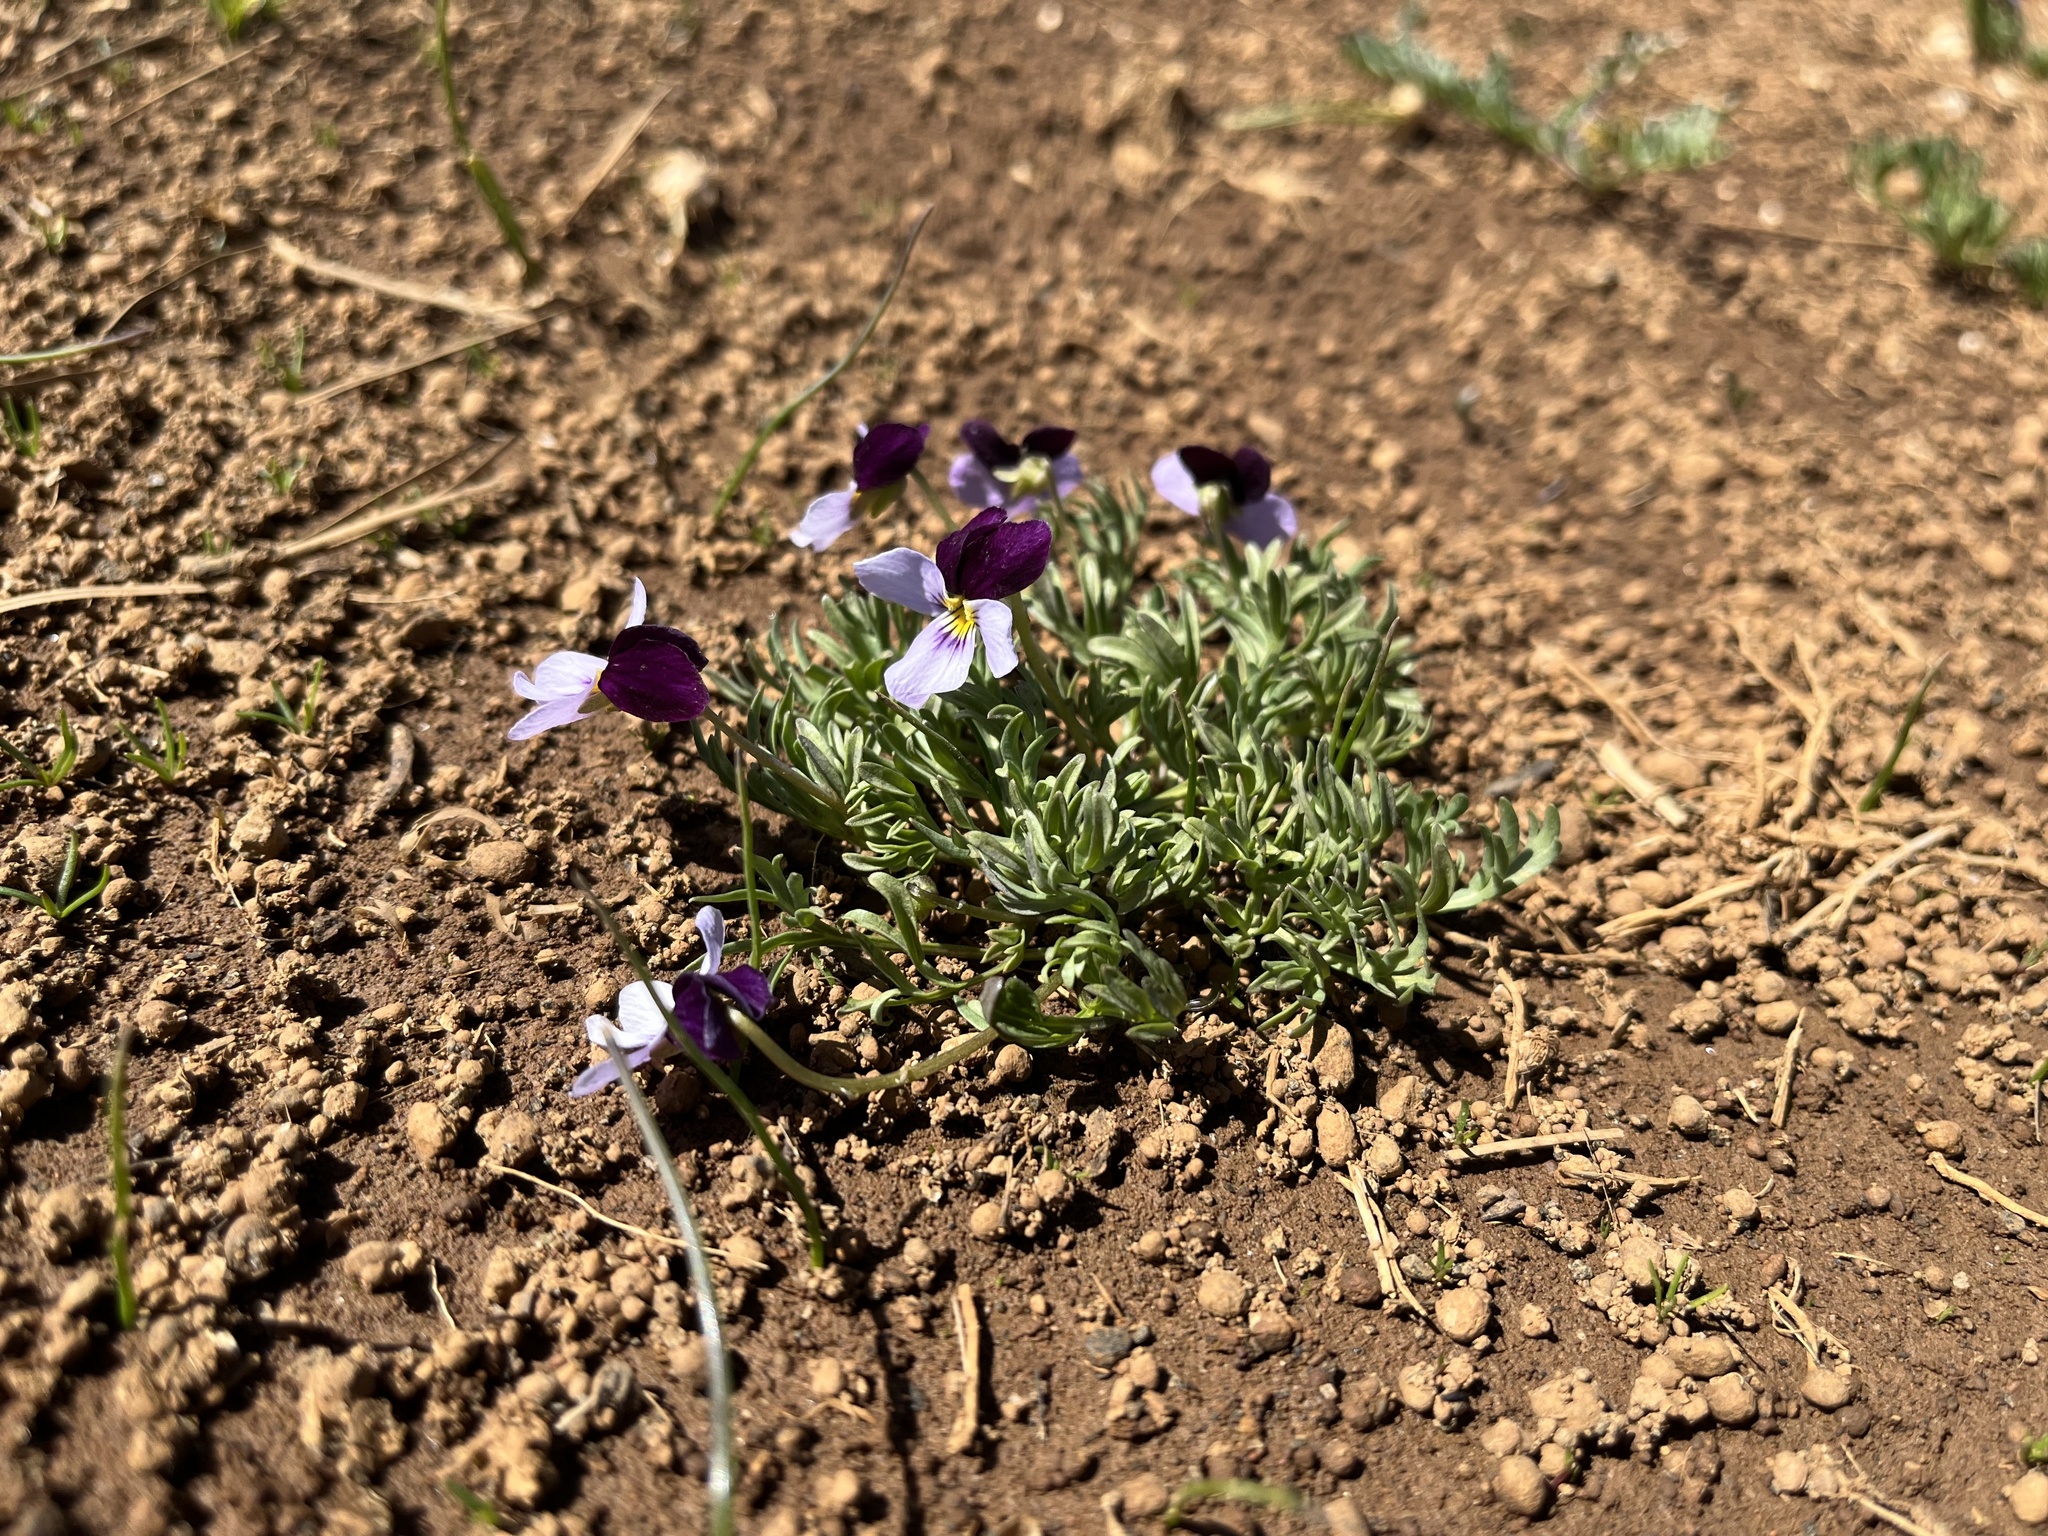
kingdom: Plantae
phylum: Tracheophyta
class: Magnoliopsida
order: Malpighiales
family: Violaceae
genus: Viola
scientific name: Viola beckwithii
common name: Beckwith's violet
